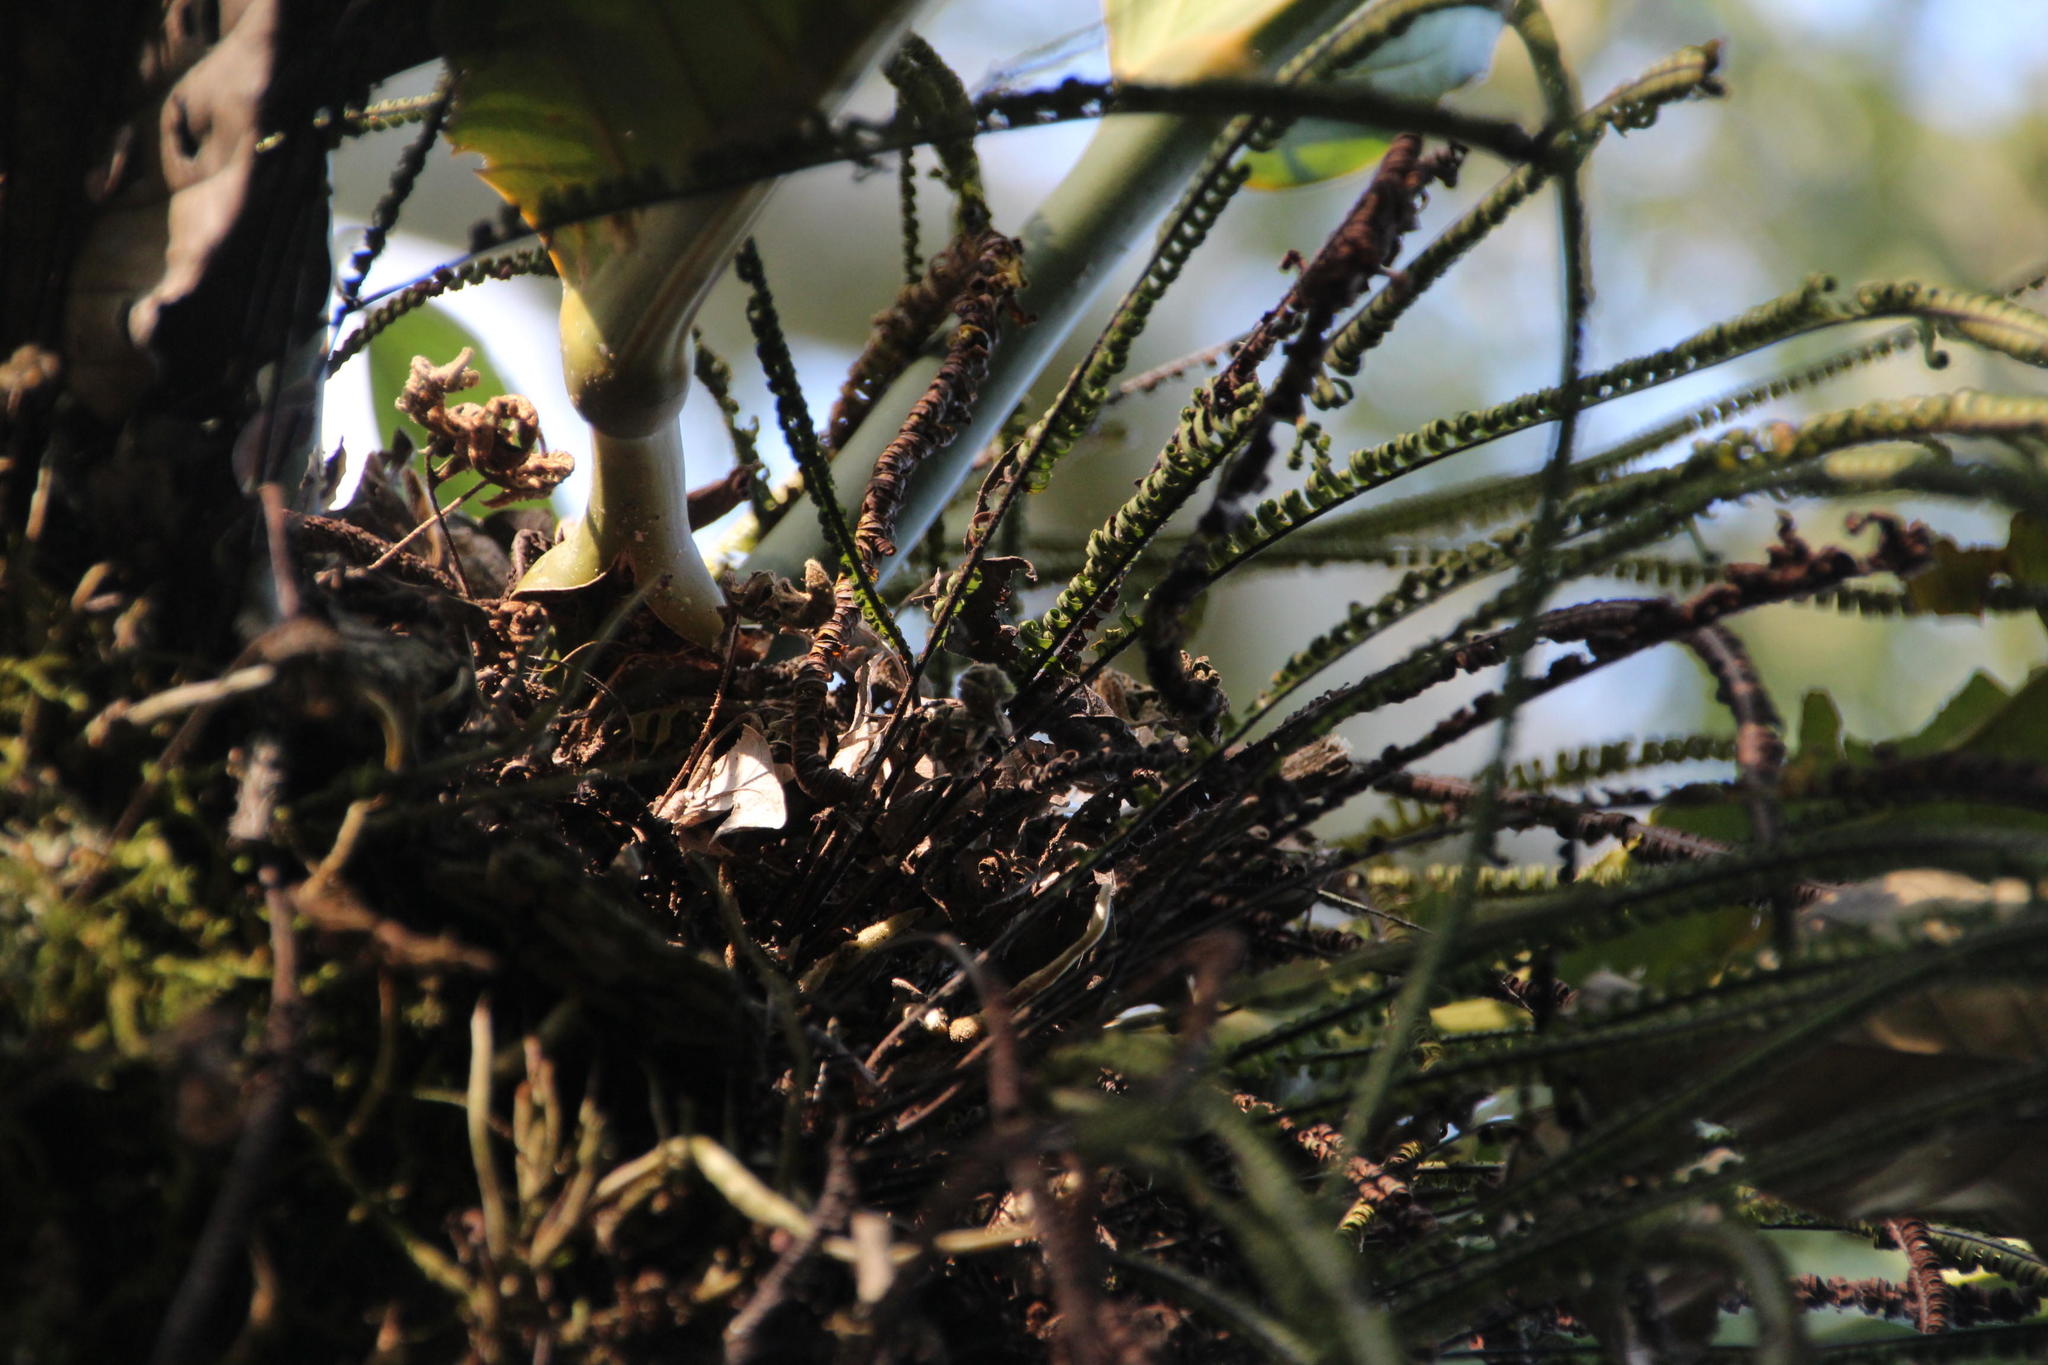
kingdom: Plantae
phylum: Tracheophyta
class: Polypodiopsida
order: Polypodiales
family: Polypodiaceae
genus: Pecluma
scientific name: Pecluma camptophyllaria
